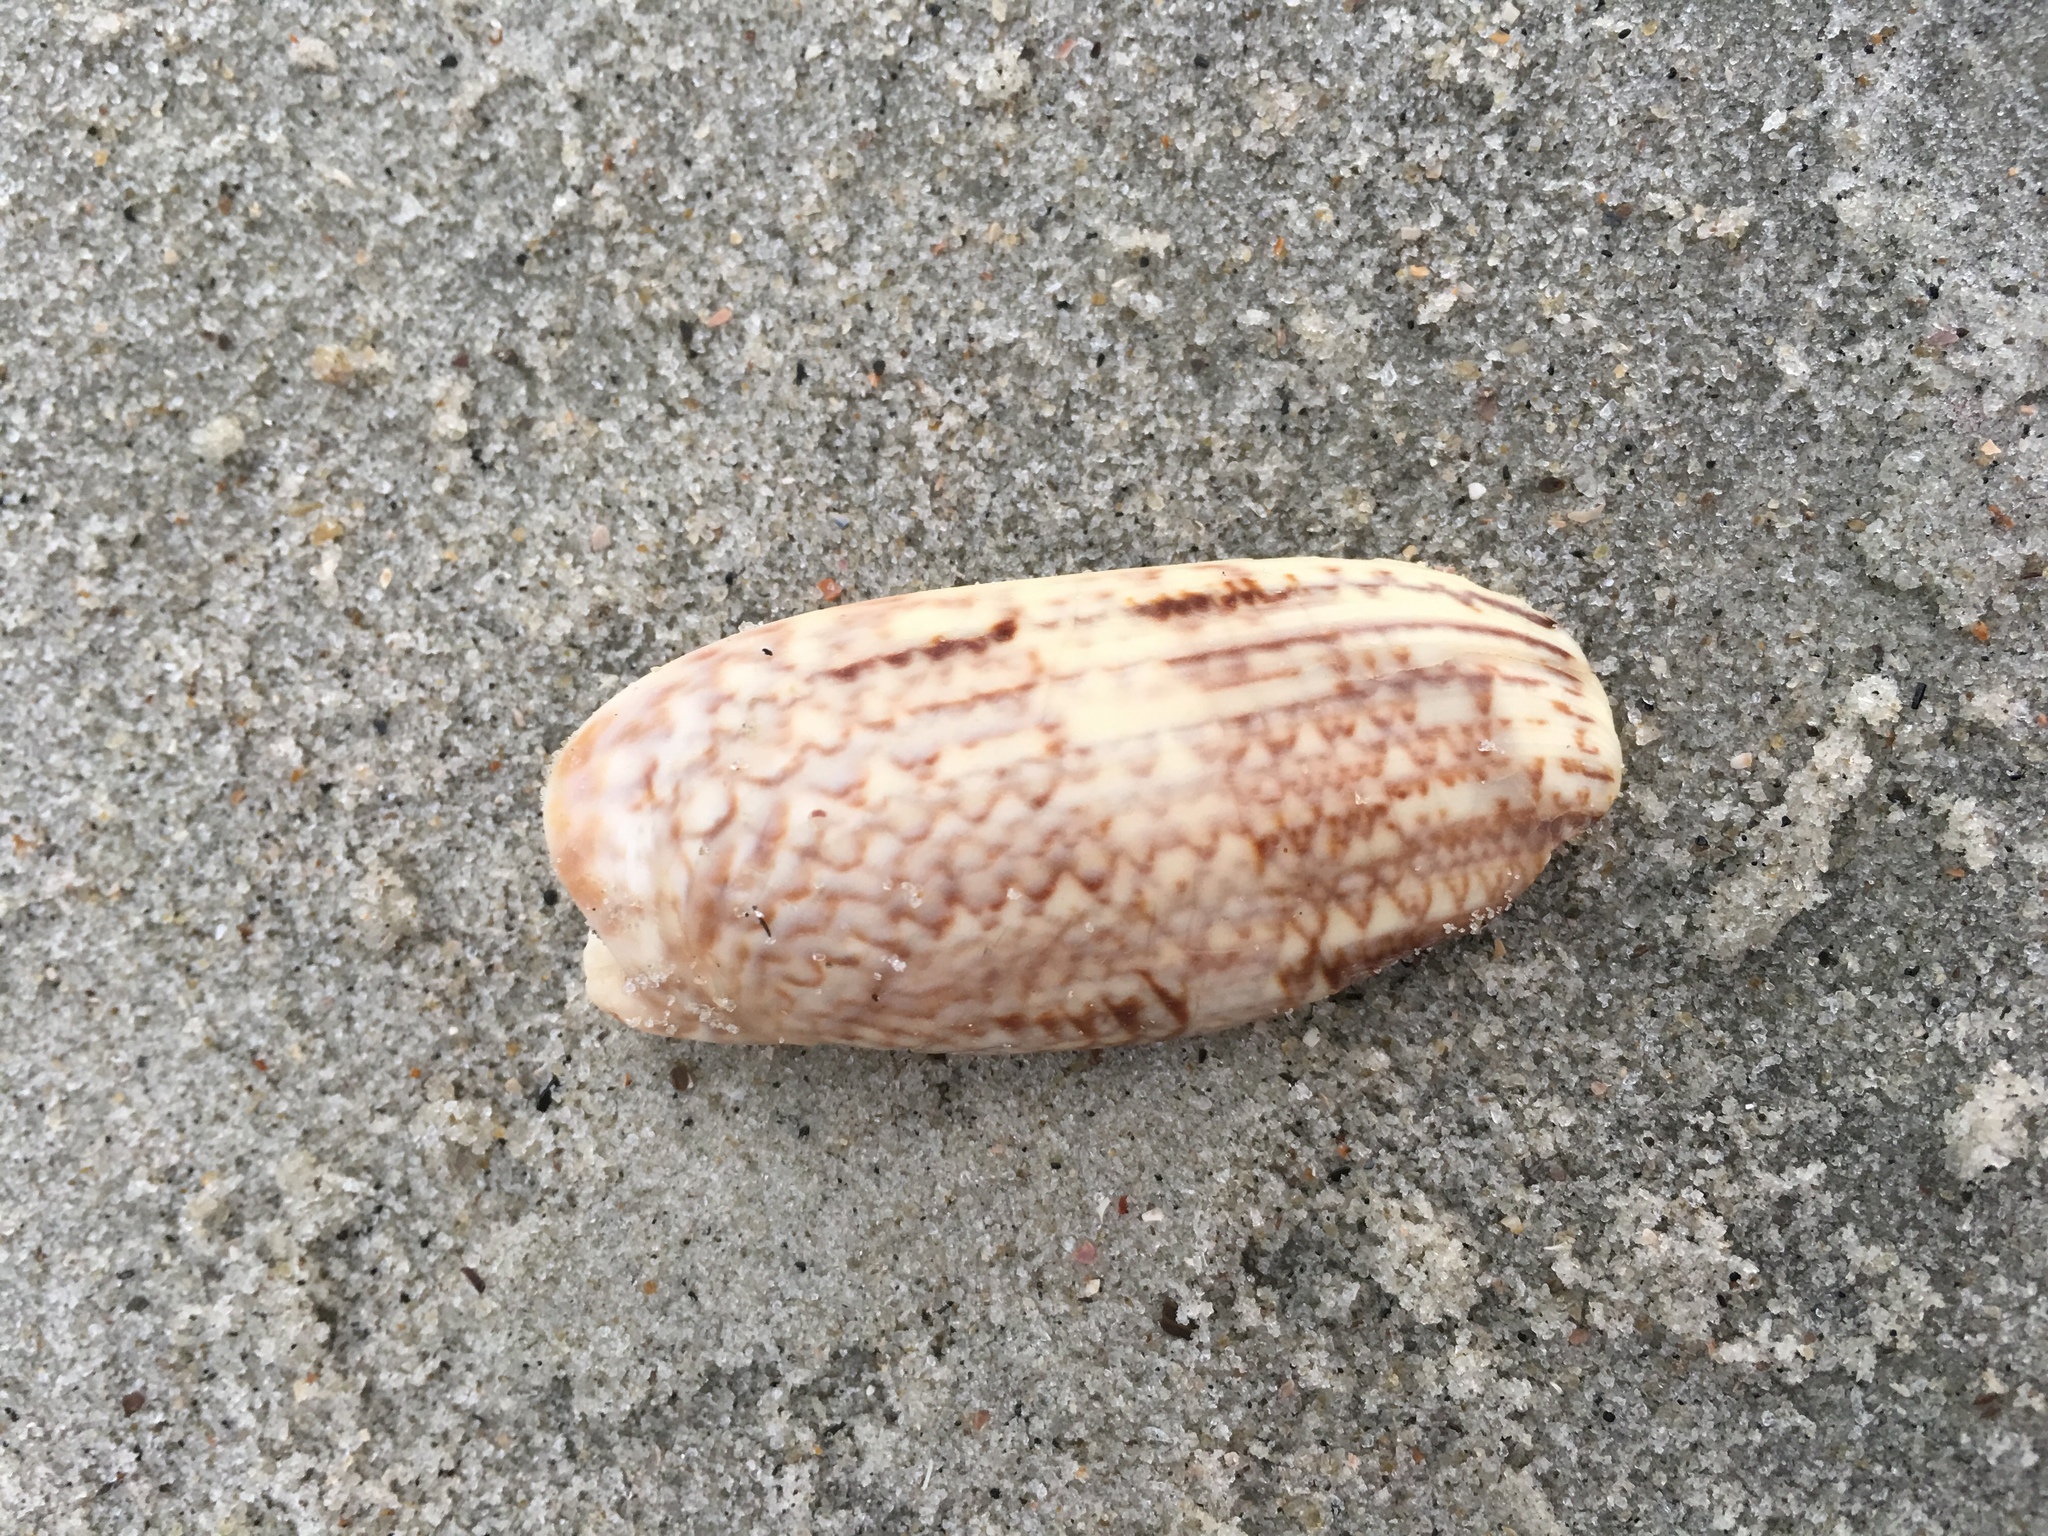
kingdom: Animalia
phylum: Mollusca
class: Gastropoda
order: Neogastropoda
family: Olividae
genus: Oliva
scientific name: Oliva sayana
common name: Lettered olive
